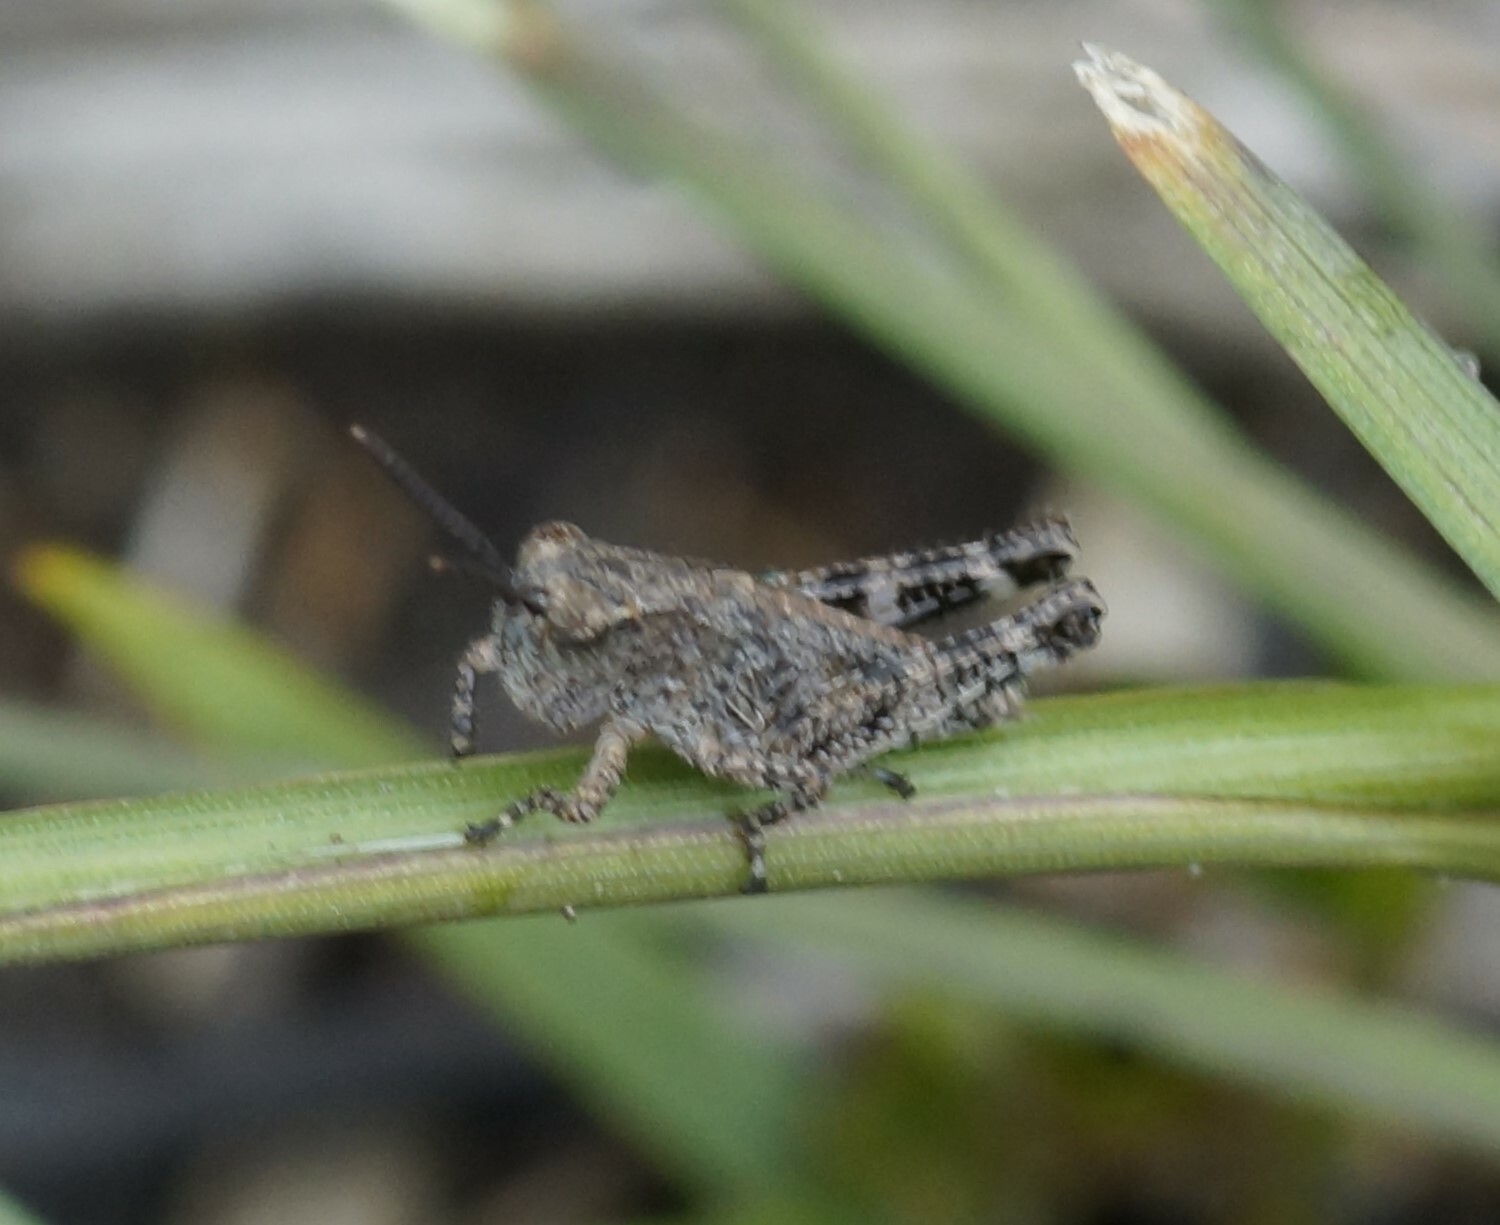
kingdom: Animalia
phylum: Arthropoda
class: Insecta
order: Orthoptera
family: Acrididae
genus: Phaulacridium
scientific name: Phaulacridium vittatum
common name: Wingless grasshopper
